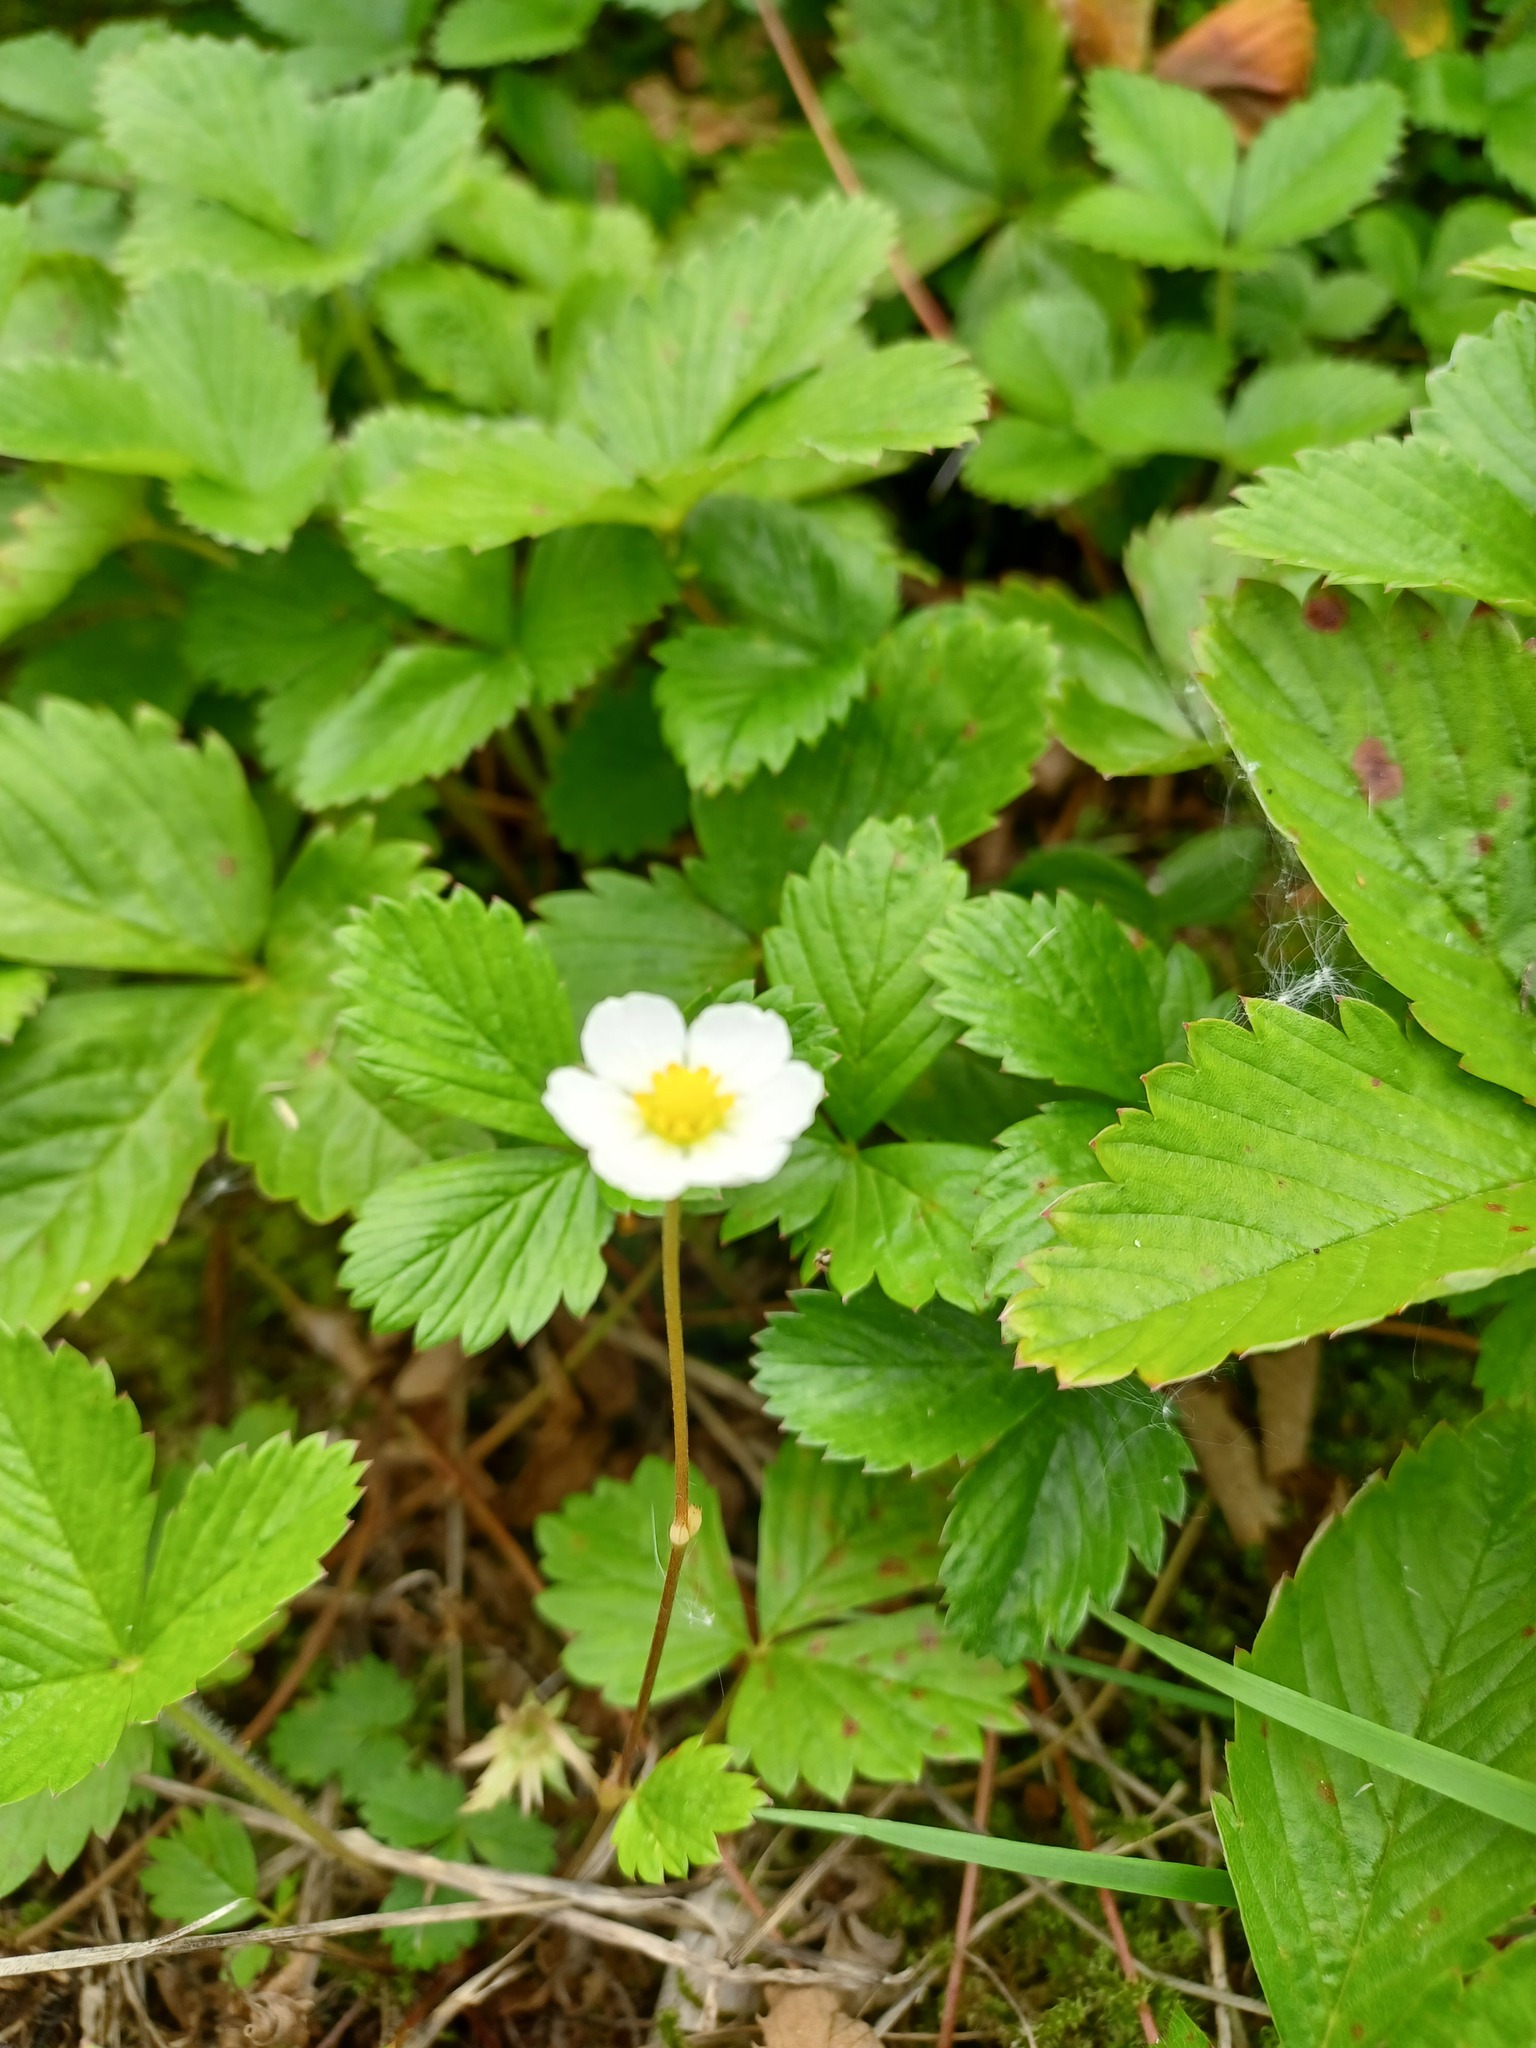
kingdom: Plantae
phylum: Tracheophyta
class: Magnoliopsida
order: Rosales
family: Rosaceae
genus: Fragaria
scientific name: Fragaria vesca
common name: Wild strawberry
